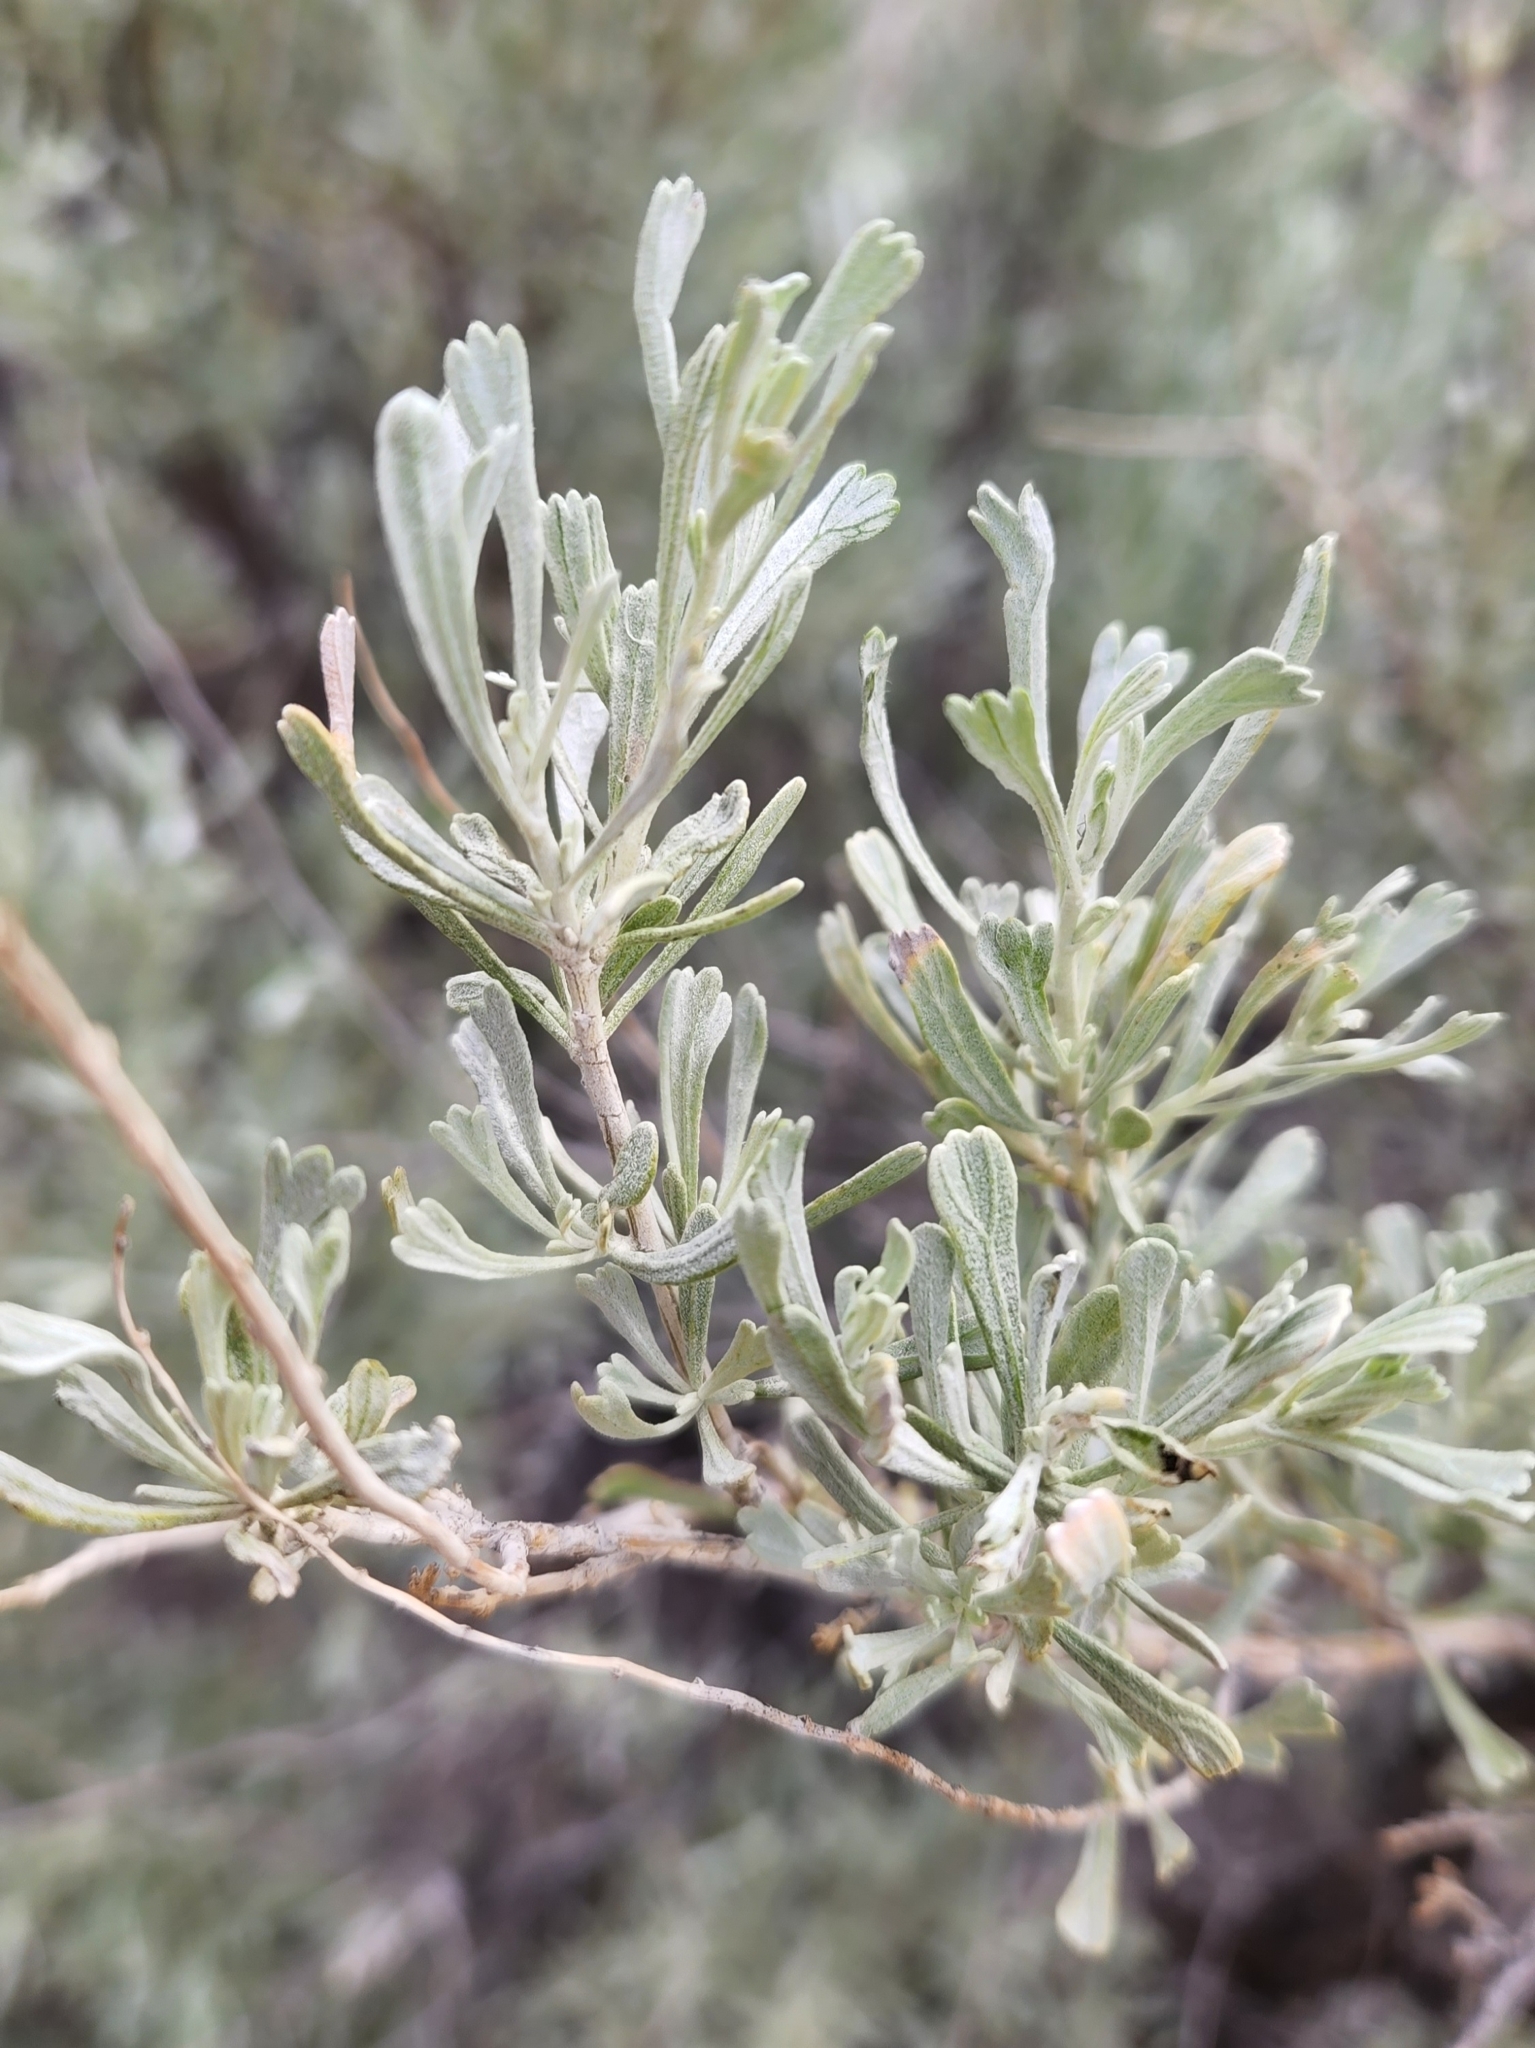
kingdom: Plantae
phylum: Tracheophyta
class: Magnoliopsida
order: Asterales
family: Asteraceae
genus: Artemisia
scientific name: Artemisia tridentata
